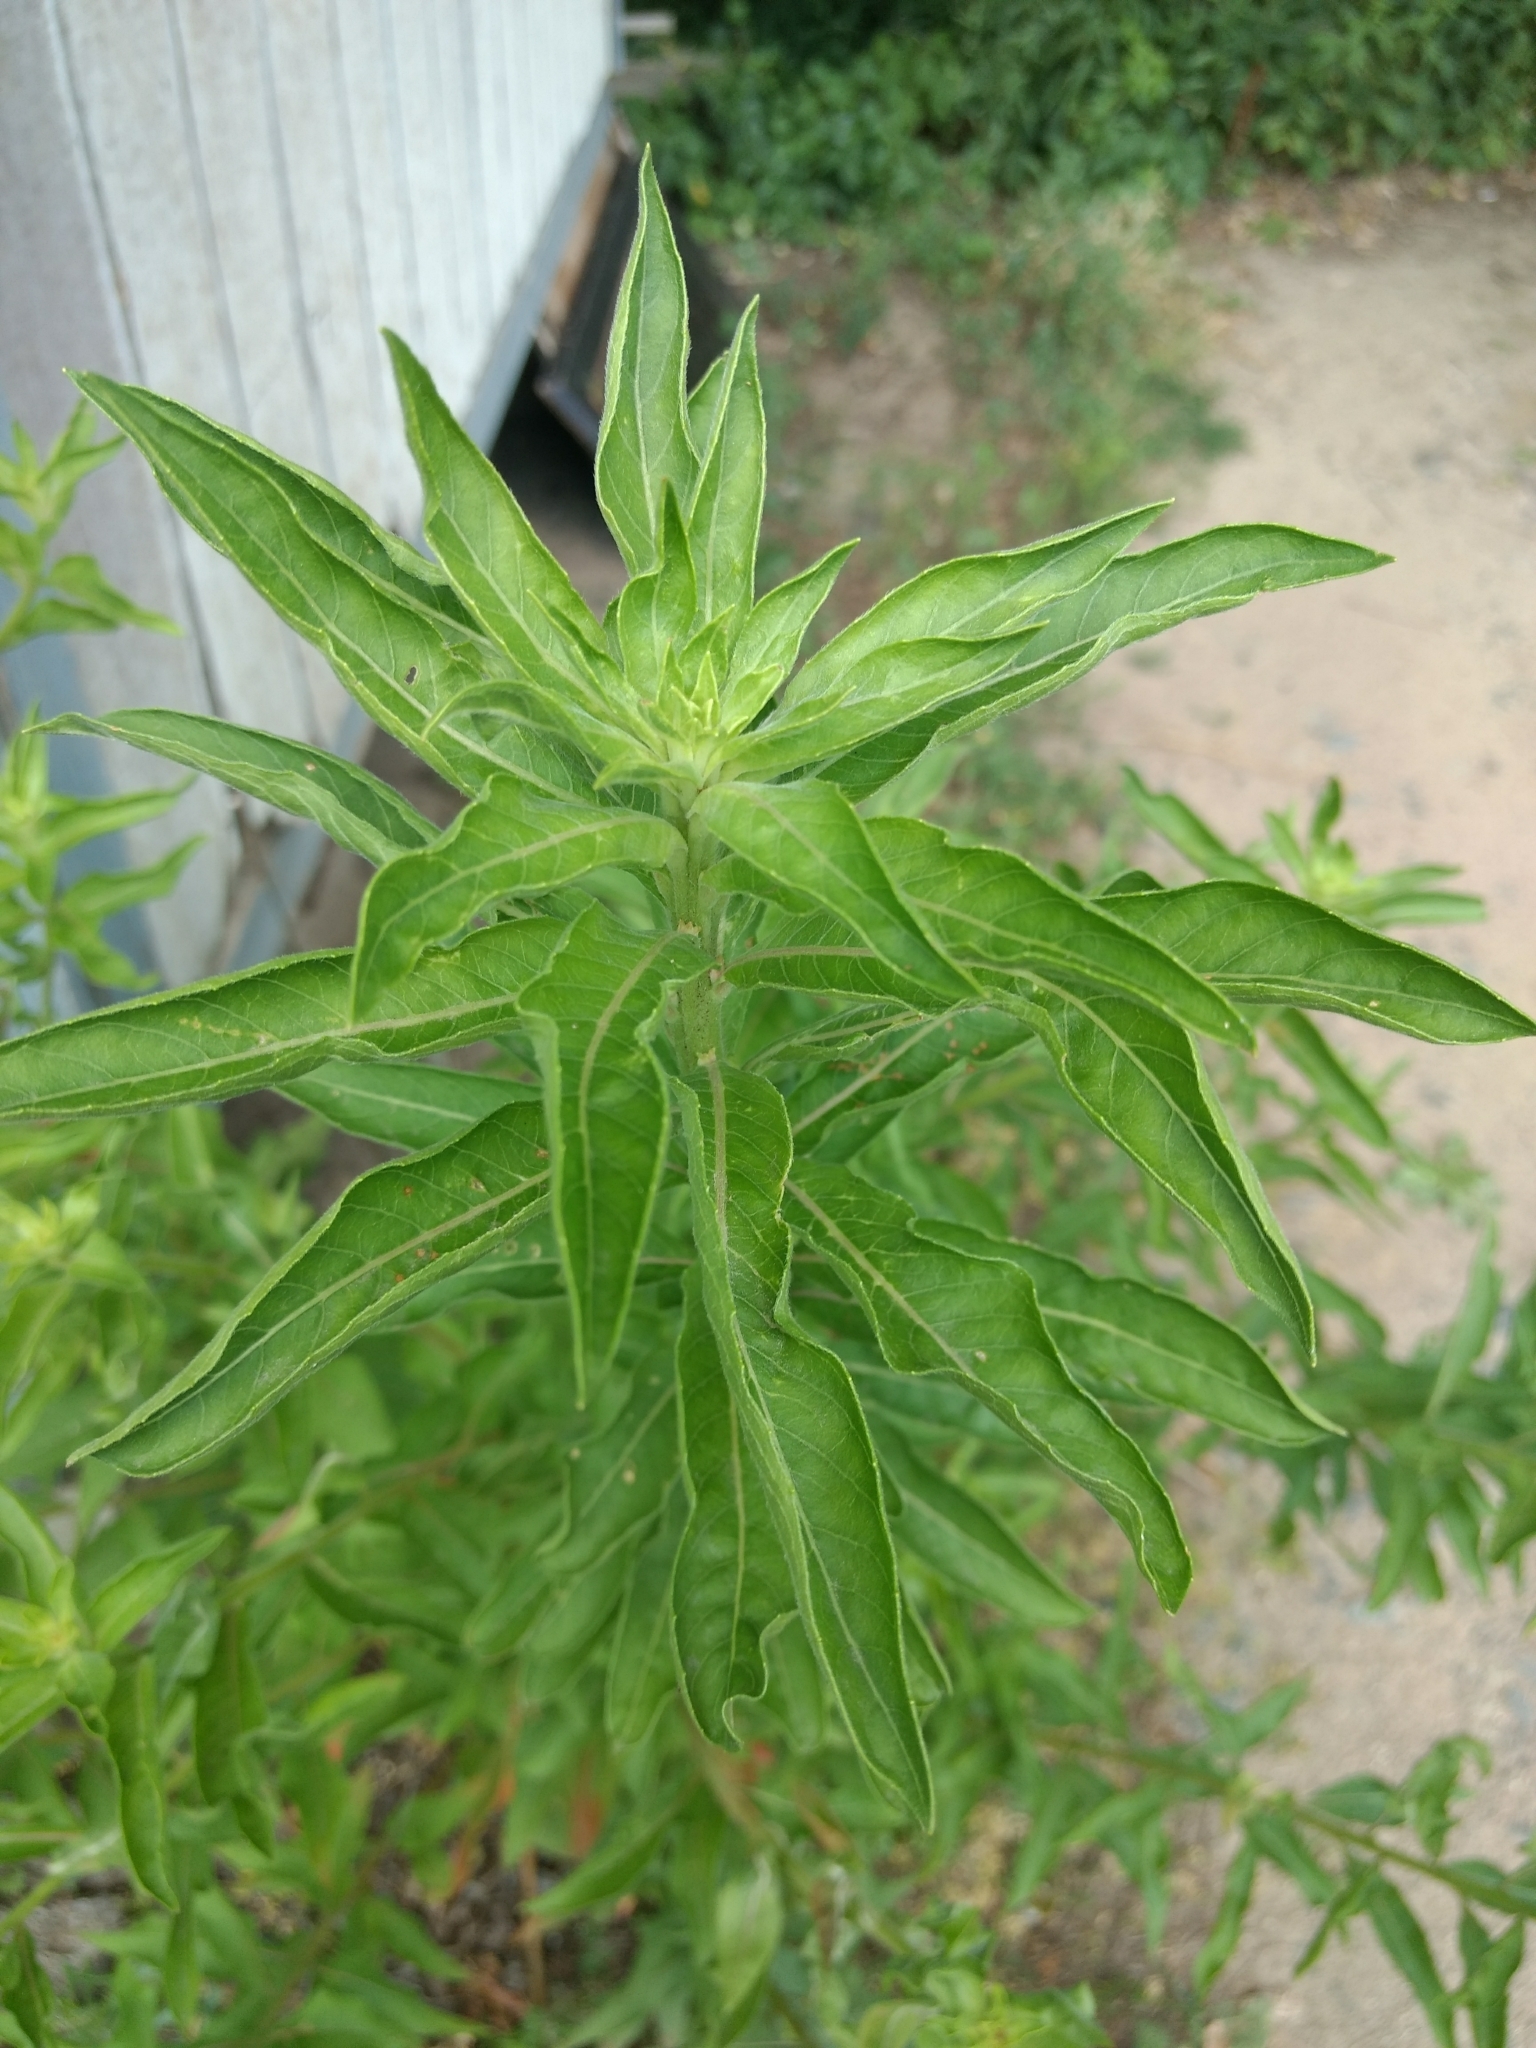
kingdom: Plantae
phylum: Tracheophyta
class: Magnoliopsida
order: Myrtales
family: Onagraceae
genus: Oenothera
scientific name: Oenothera biennis
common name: Common evening-primrose
